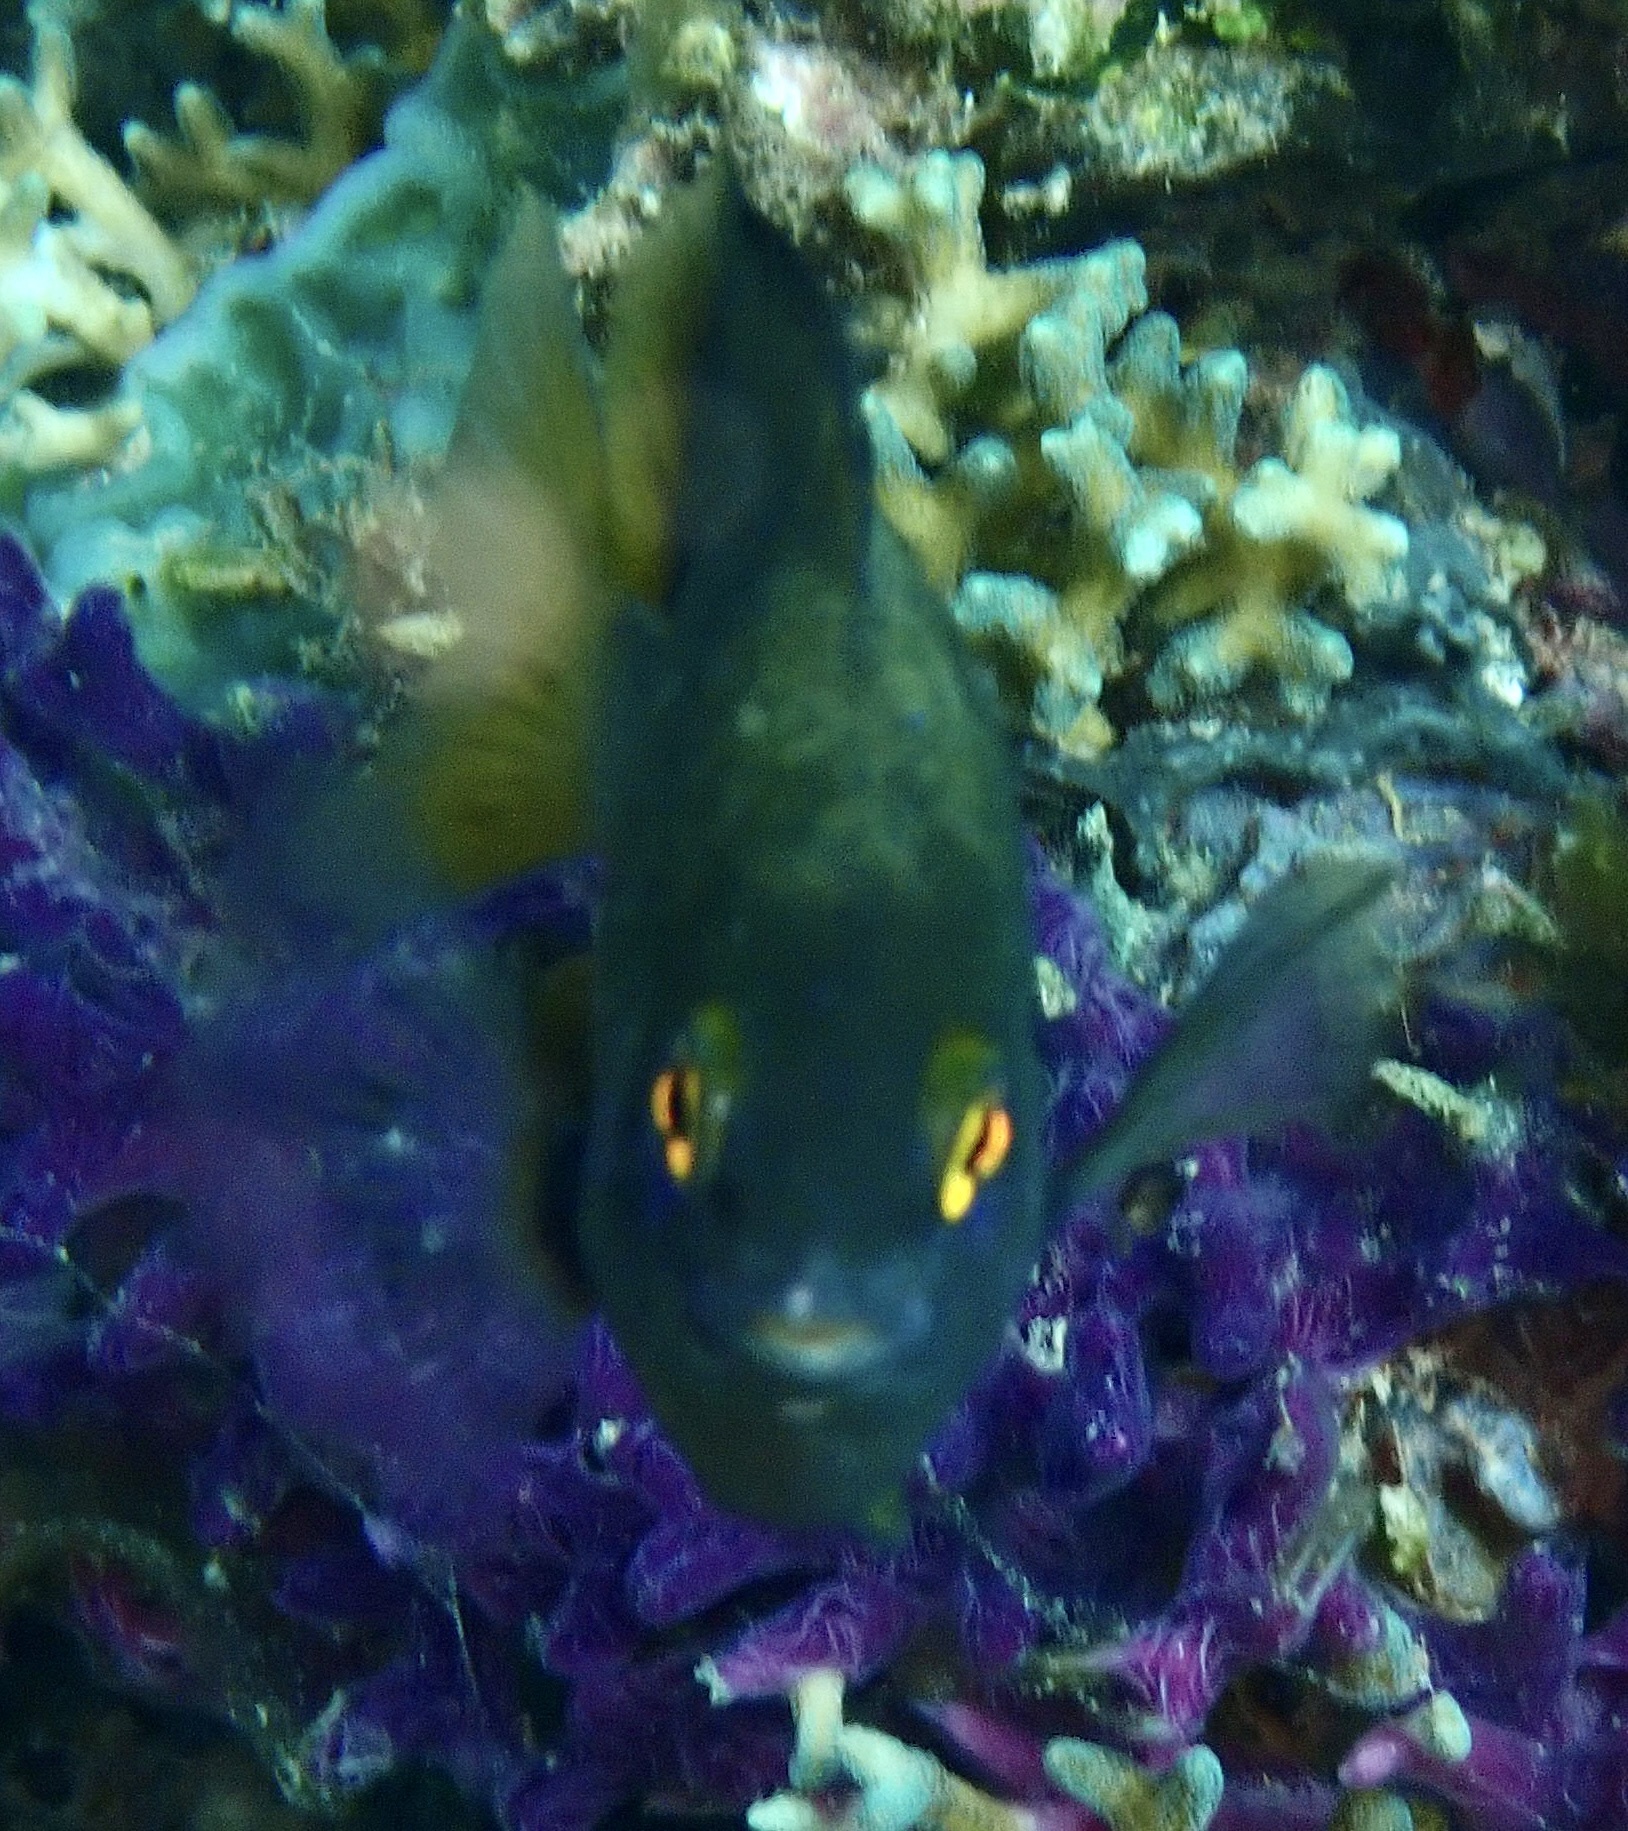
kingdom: Animalia
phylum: Chordata
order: Perciformes
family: Pomacentridae
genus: Plectroglyphidodon
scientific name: Plectroglyphidodon lacrymatus
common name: Jewel damsel
